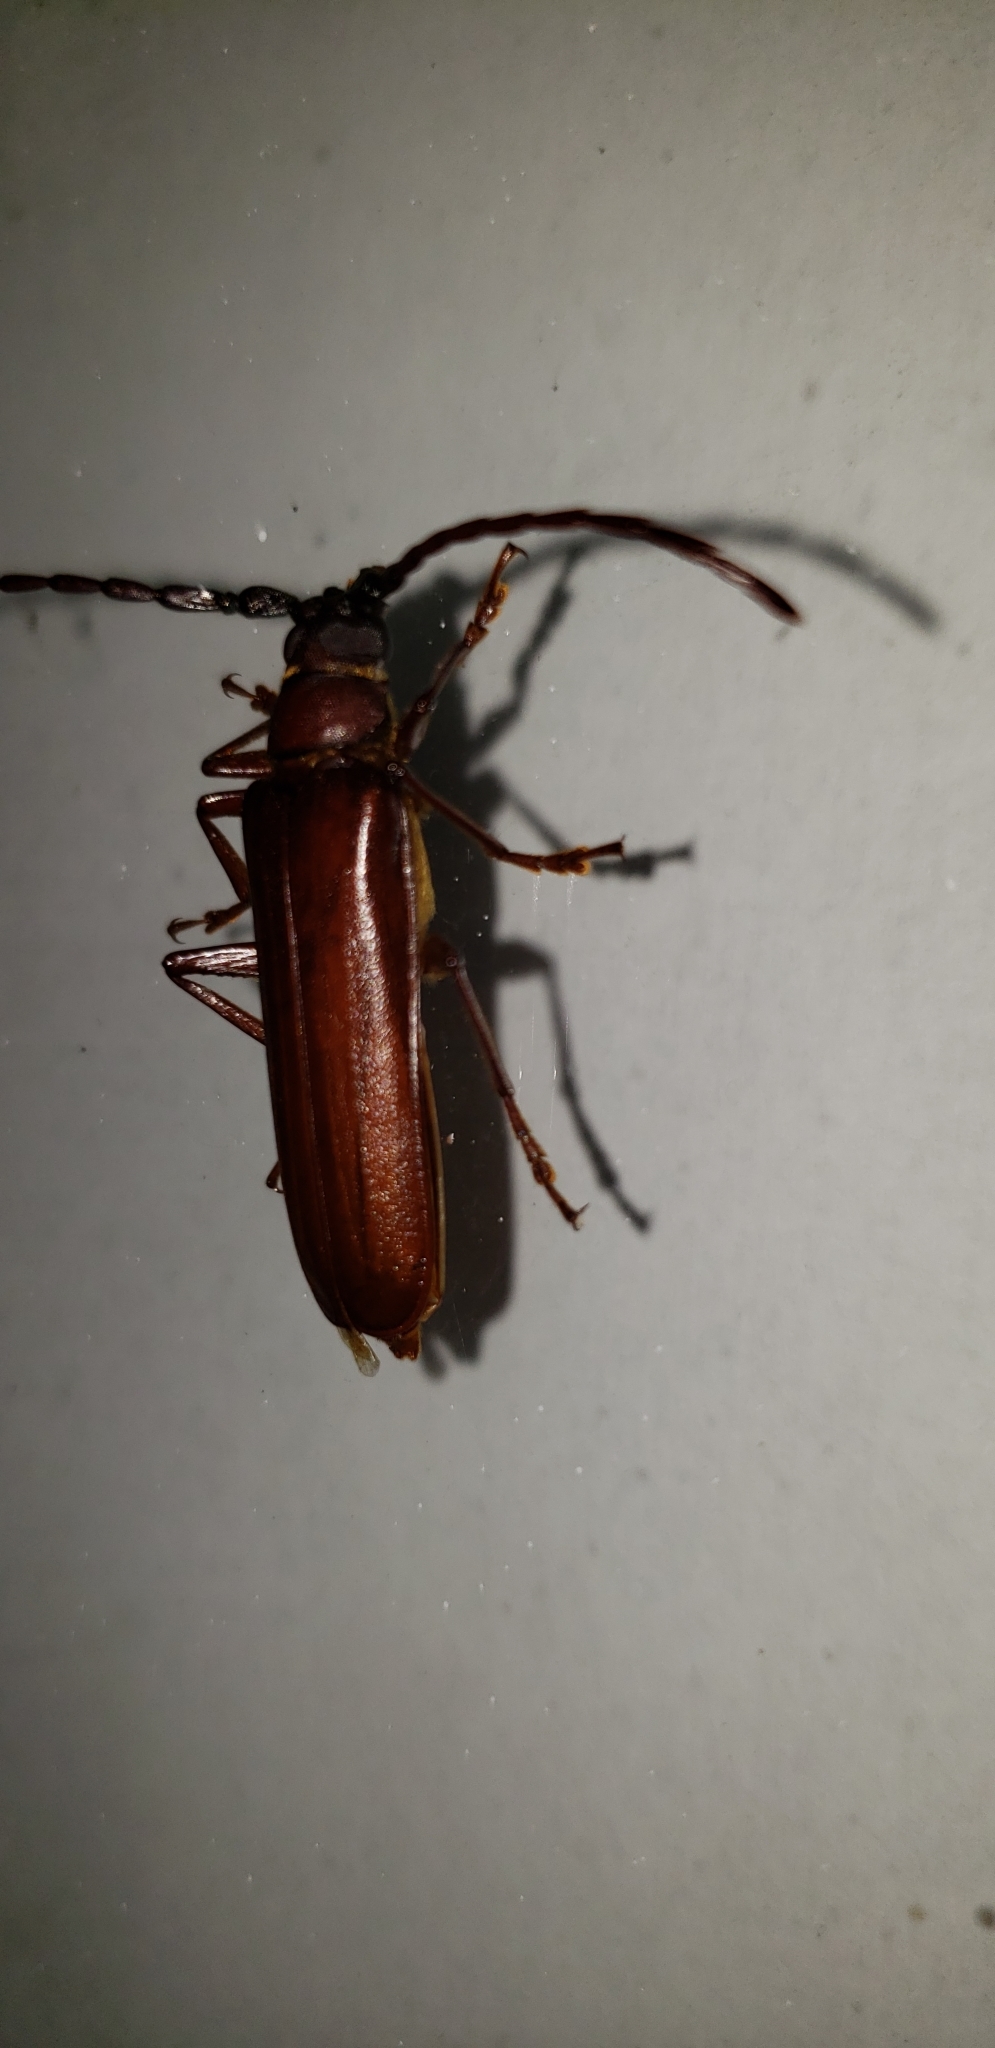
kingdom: Animalia
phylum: Arthropoda
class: Insecta
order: Coleoptera
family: Cerambycidae
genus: Orthosoma
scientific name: Orthosoma brunneum
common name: Brown prionid beetle
